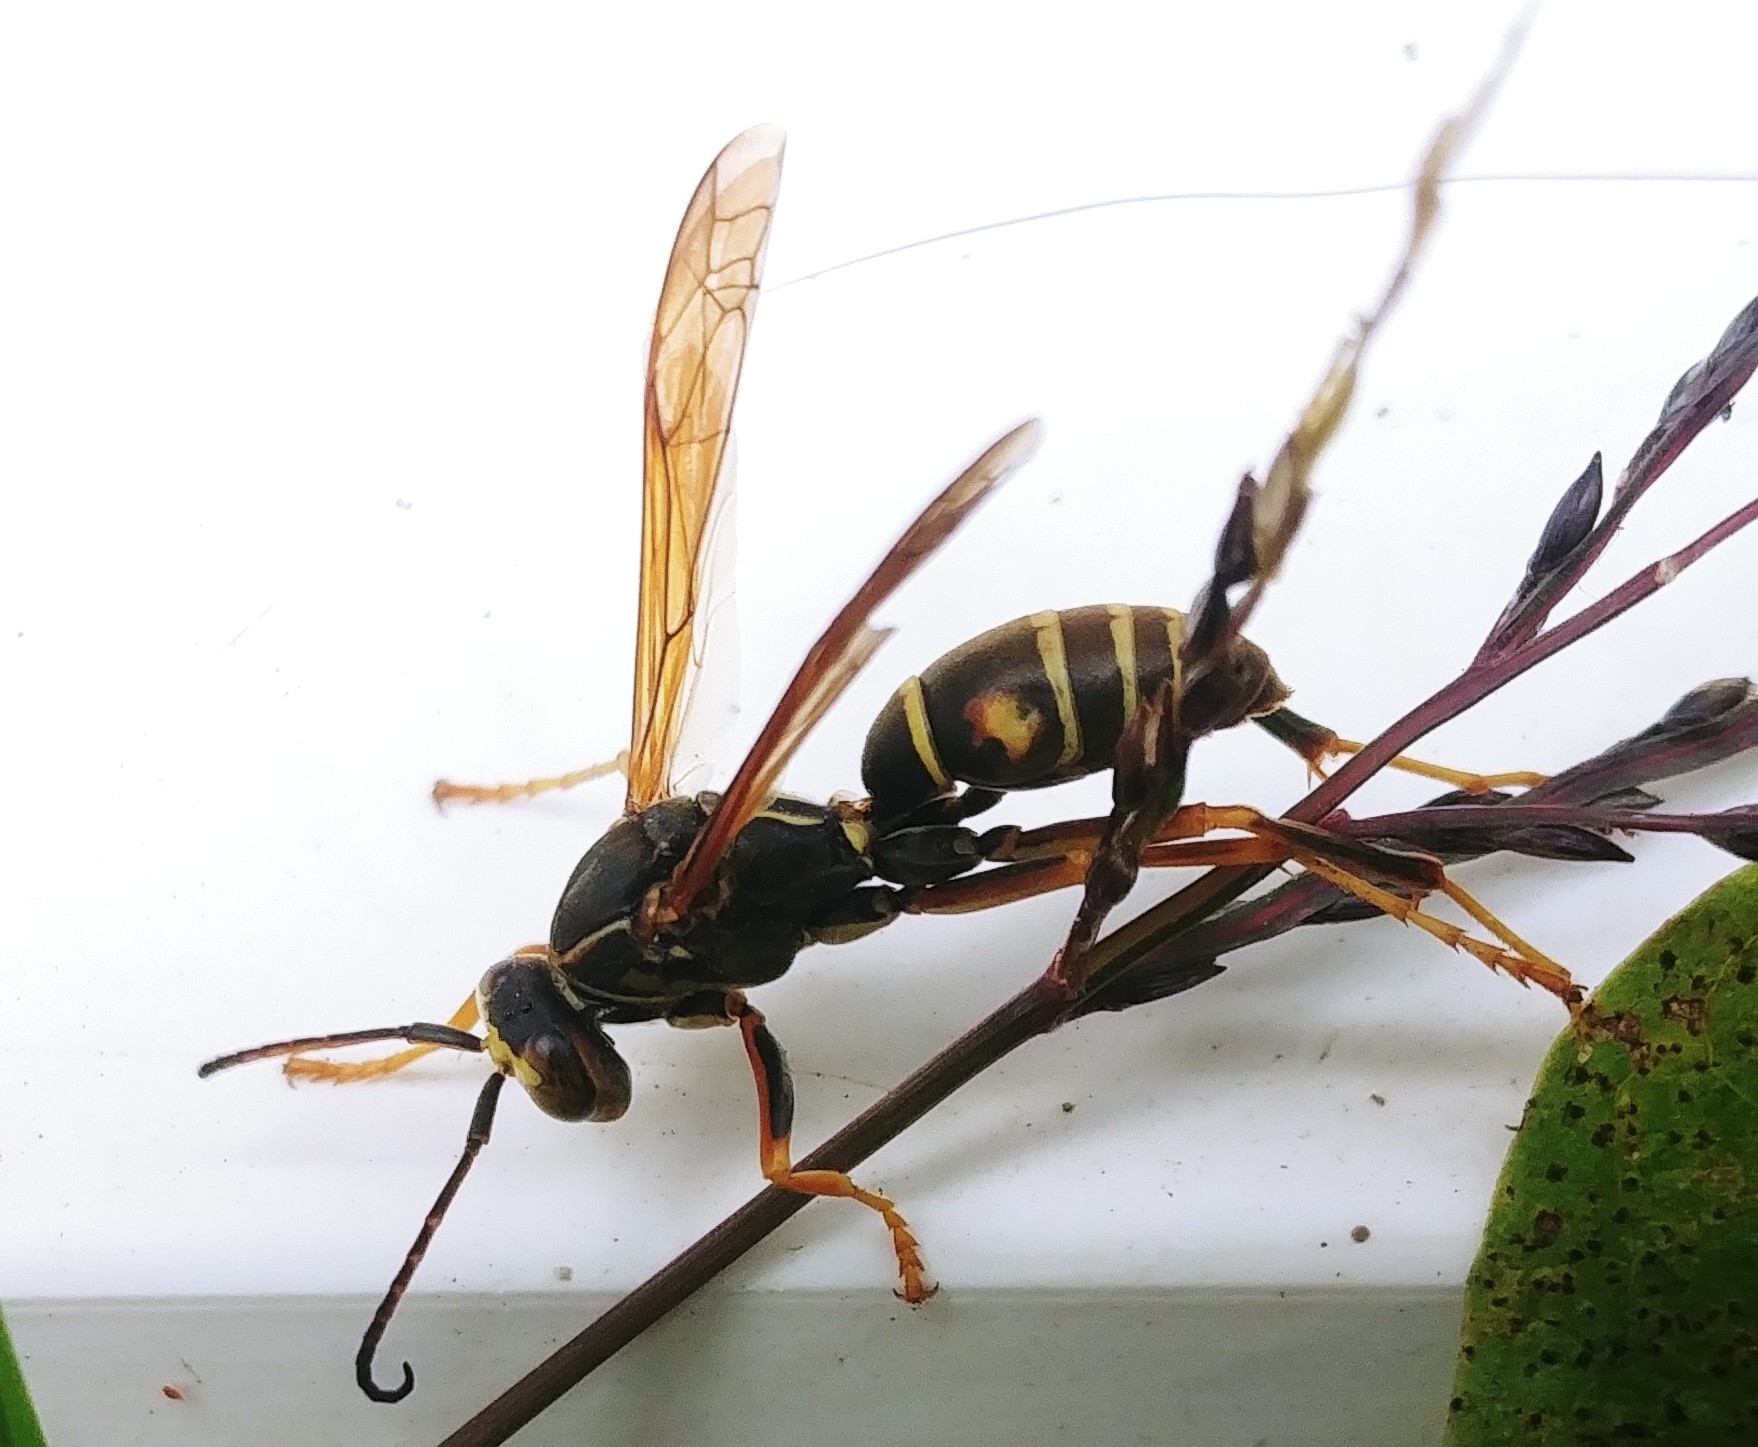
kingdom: Animalia
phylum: Arthropoda
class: Insecta
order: Hymenoptera
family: Eumenidae
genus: Polistes
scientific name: Polistes fuscatus
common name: Dark paper wasp
